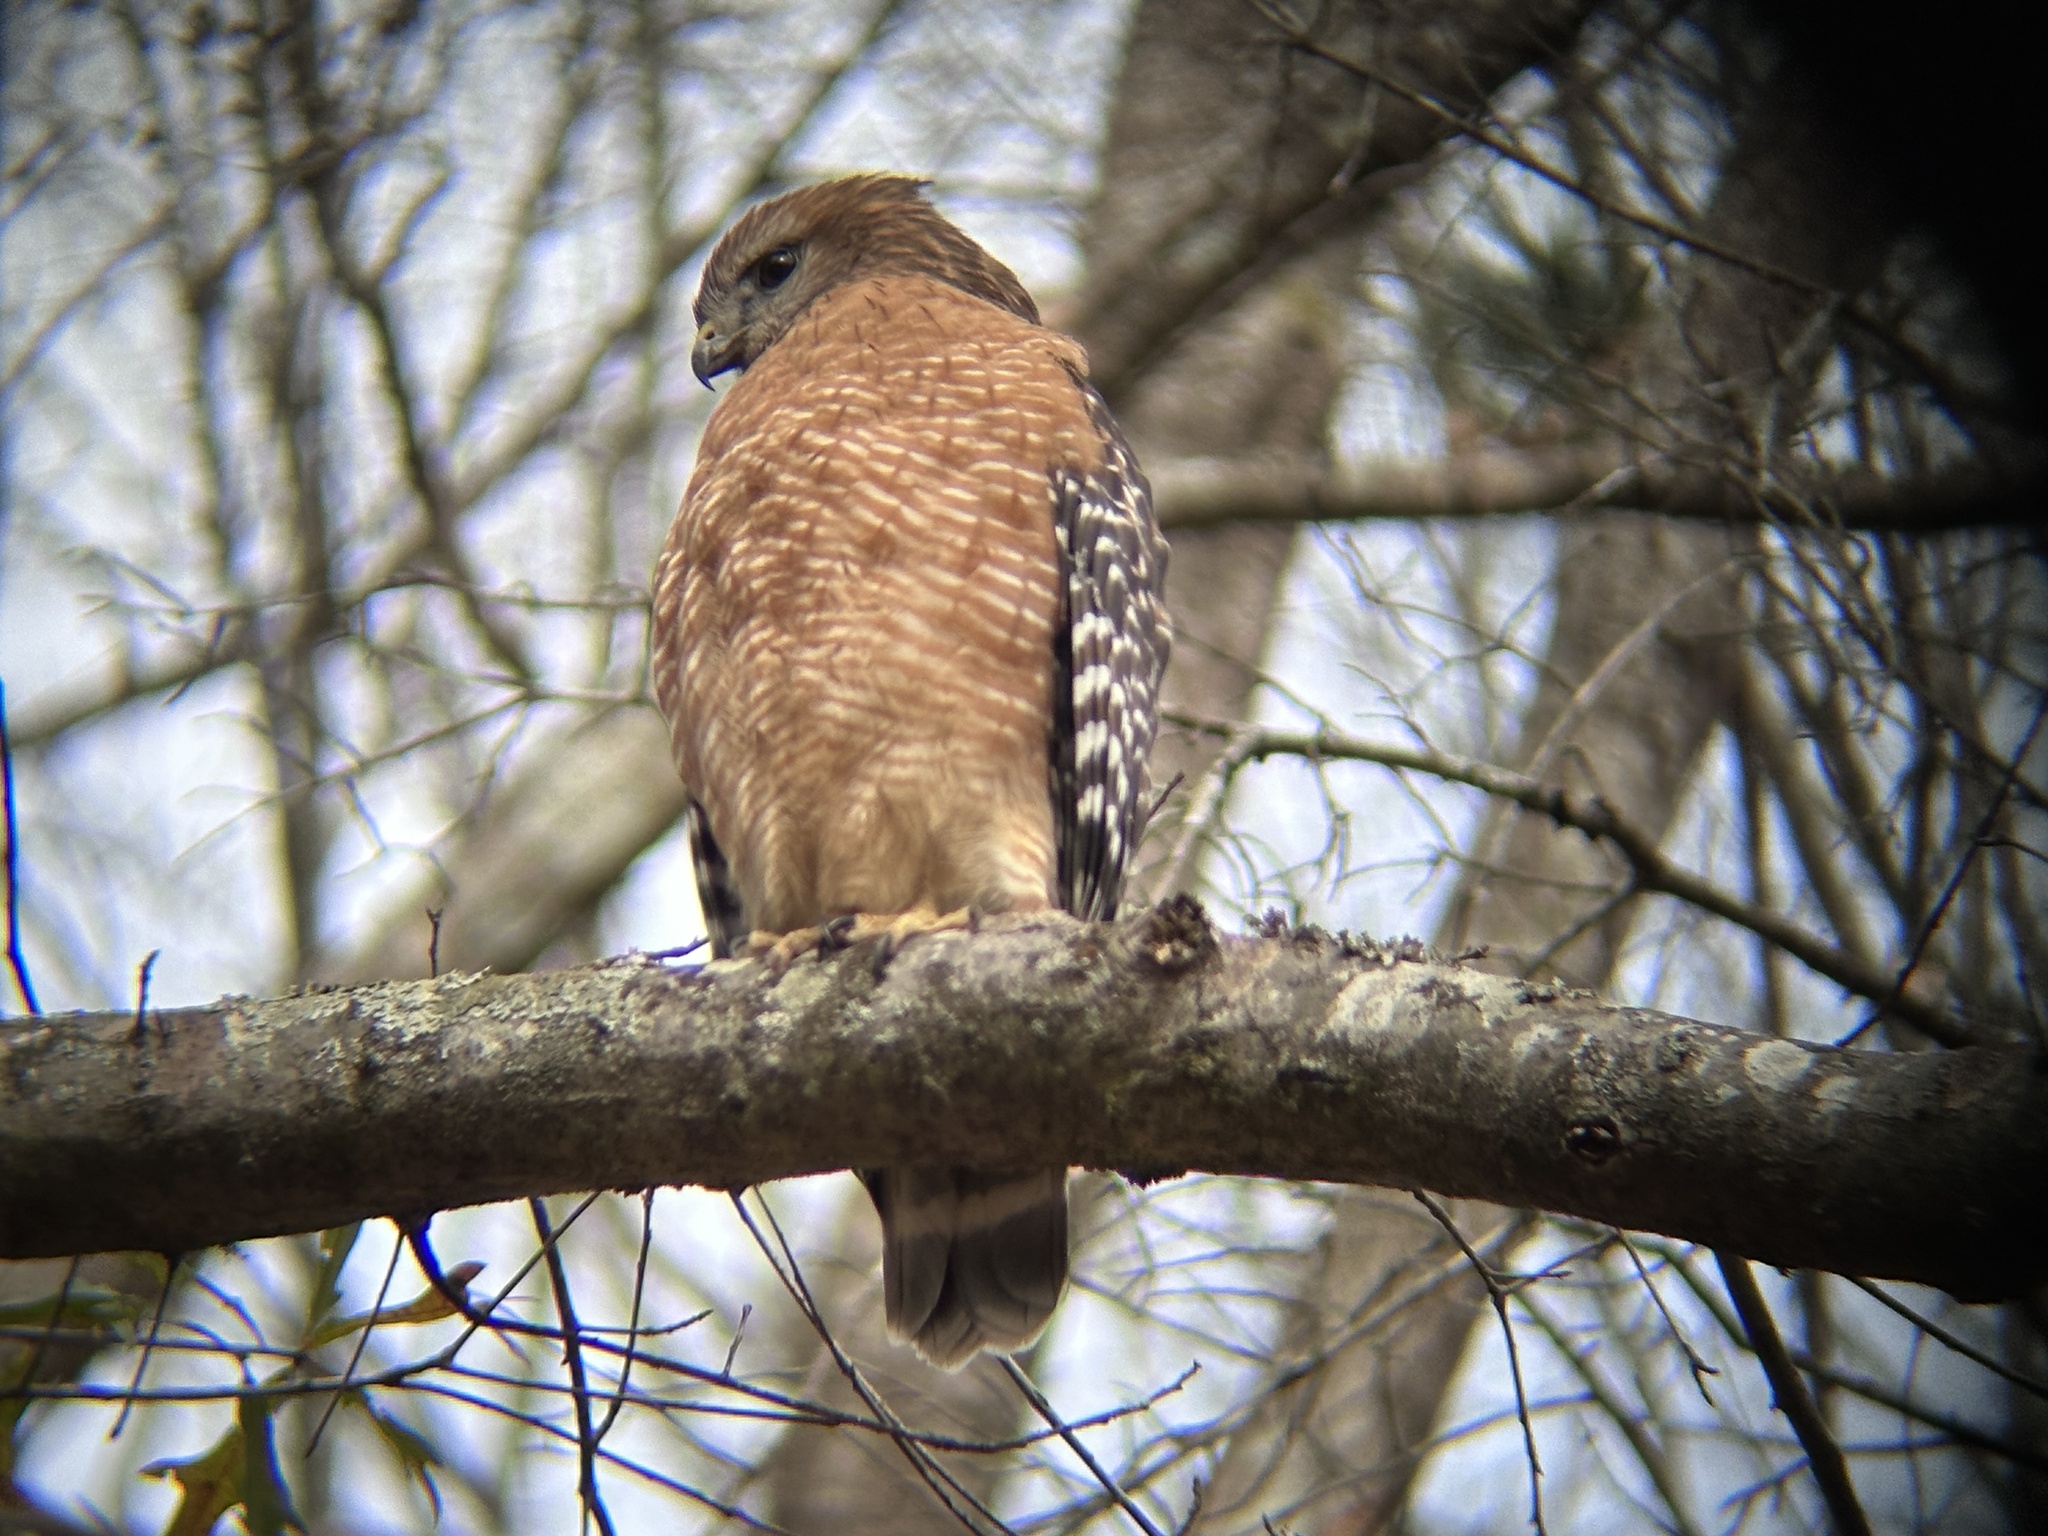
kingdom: Animalia
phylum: Chordata
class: Aves
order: Accipitriformes
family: Accipitridae
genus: Buteo
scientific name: Buteo lineatus
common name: Red-shouldered hawk
